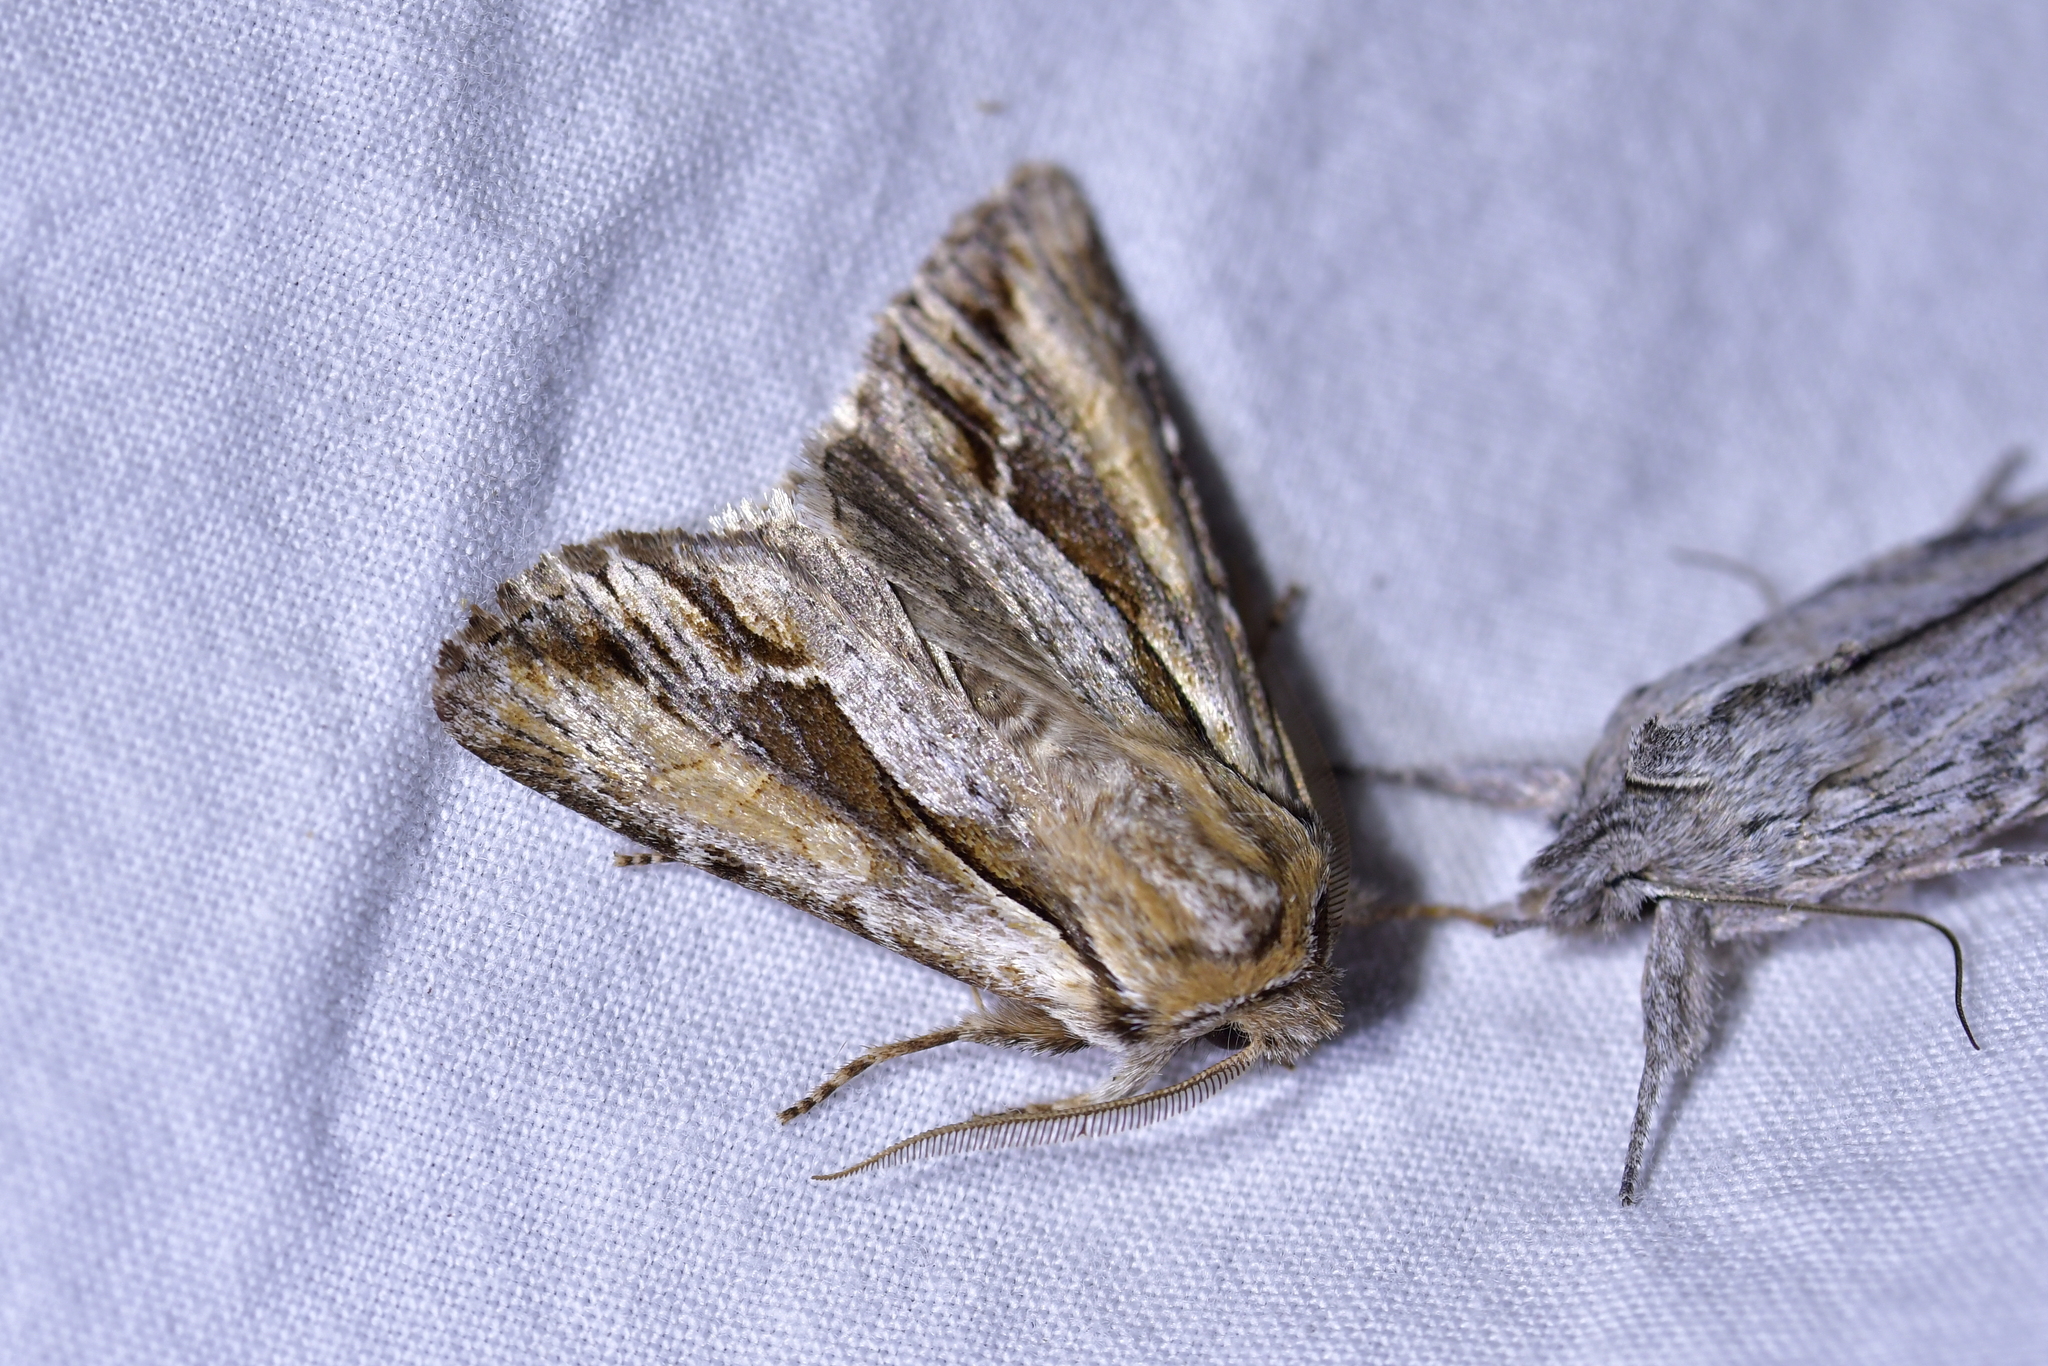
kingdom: Animalia
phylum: Arthropoda
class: Insecta
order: Lepidoptera
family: Noctuidae
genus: Ichneutica
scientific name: Ichneutica
